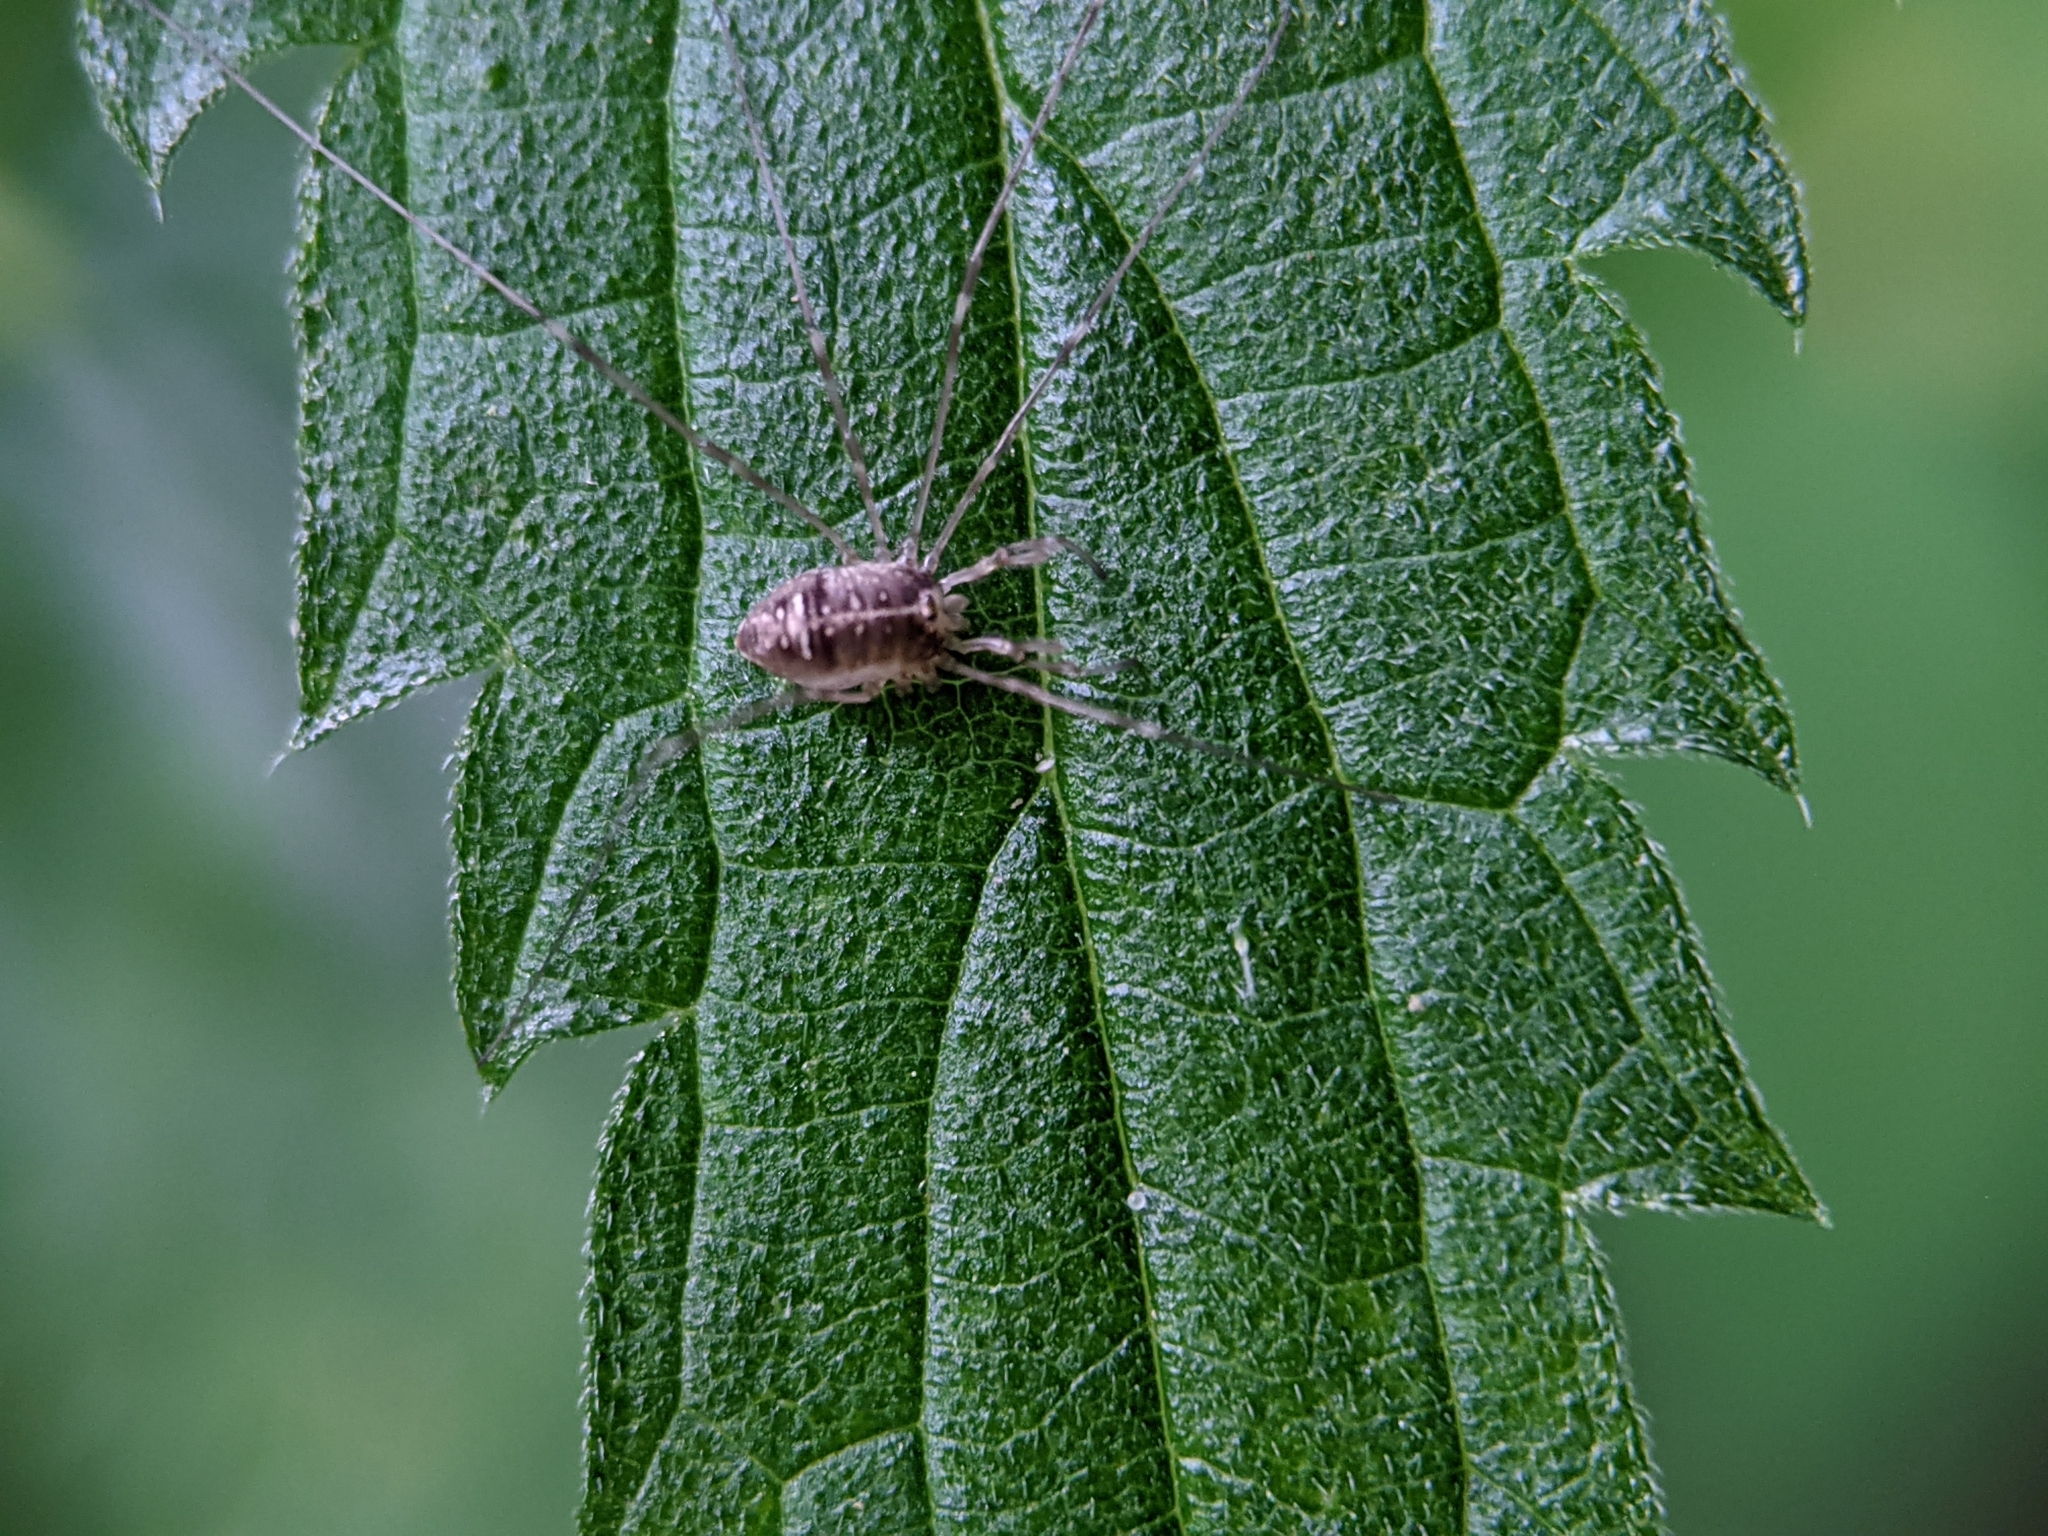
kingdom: Animalia
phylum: Arthropoda
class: Arachnida
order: Opiliones
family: Phalangiidae
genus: Dicranopalpus
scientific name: Dicranopalpus ramosus
